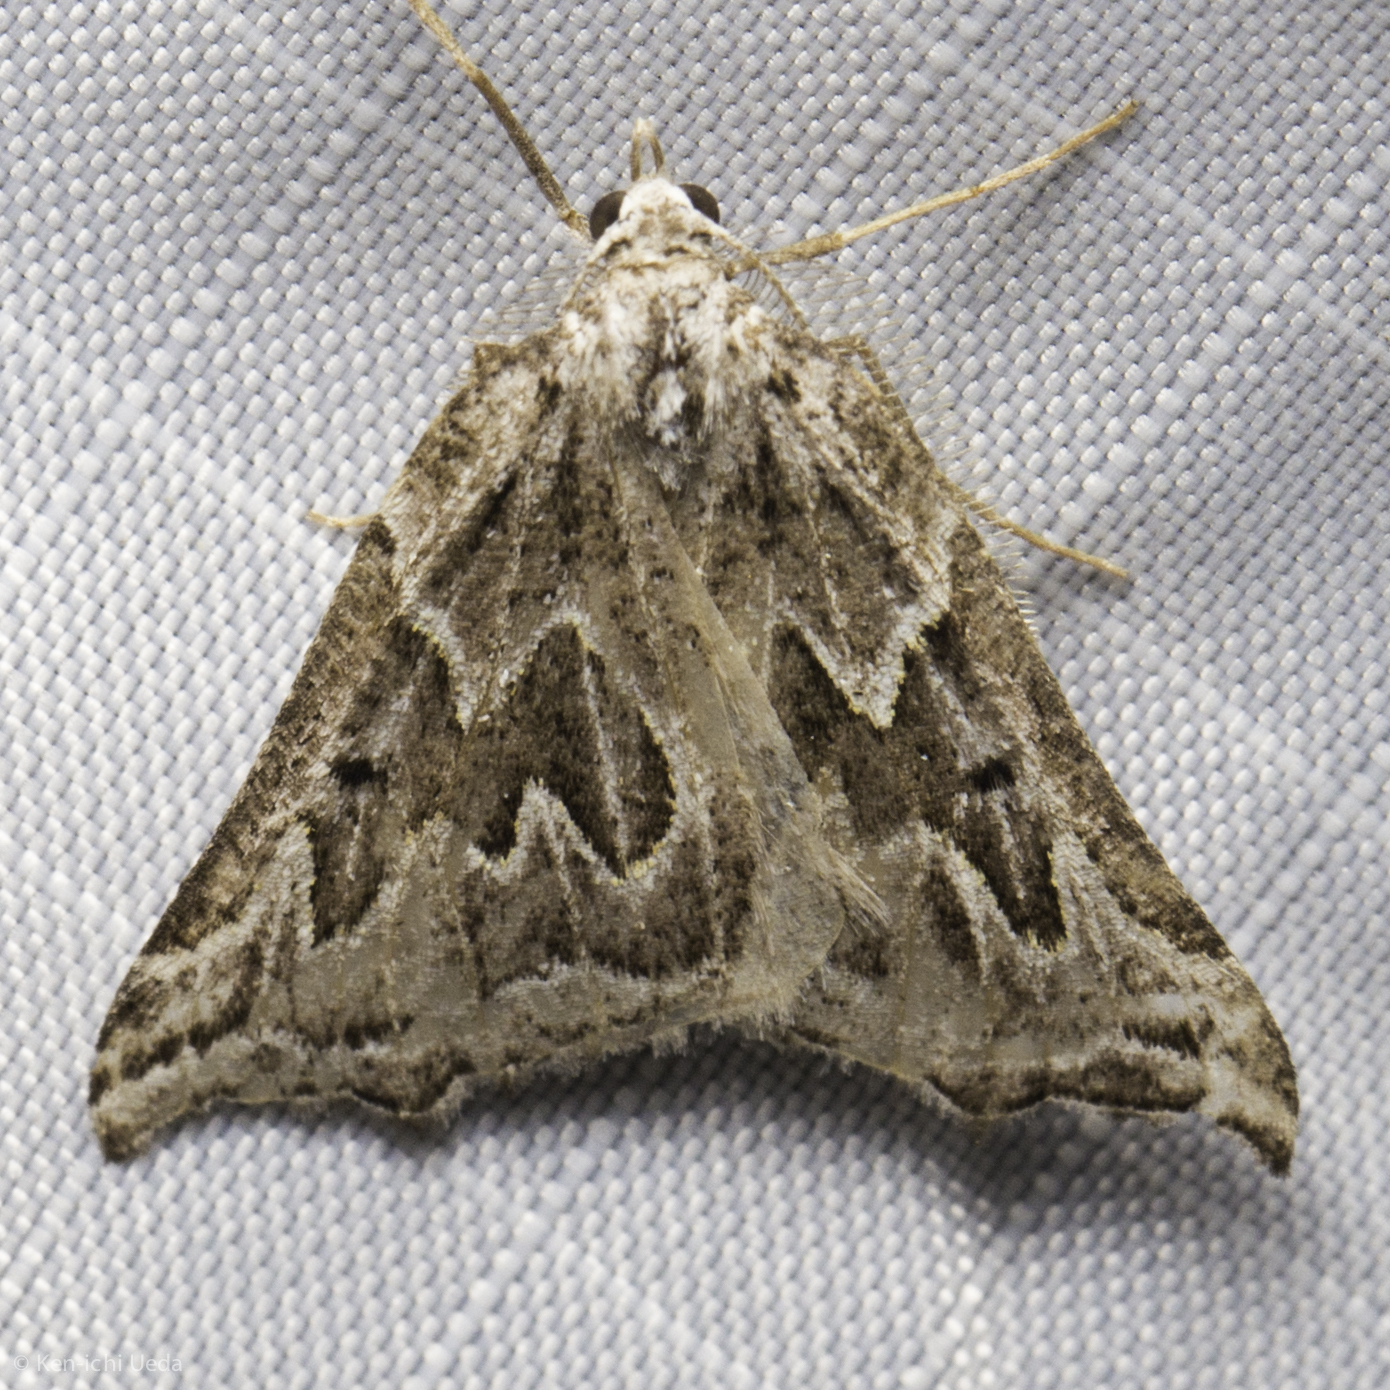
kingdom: Animalia
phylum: Arthropoda
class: Insecta
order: Lepidoptera
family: Geometridae
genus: Plataea
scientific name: Plataea californiaria
